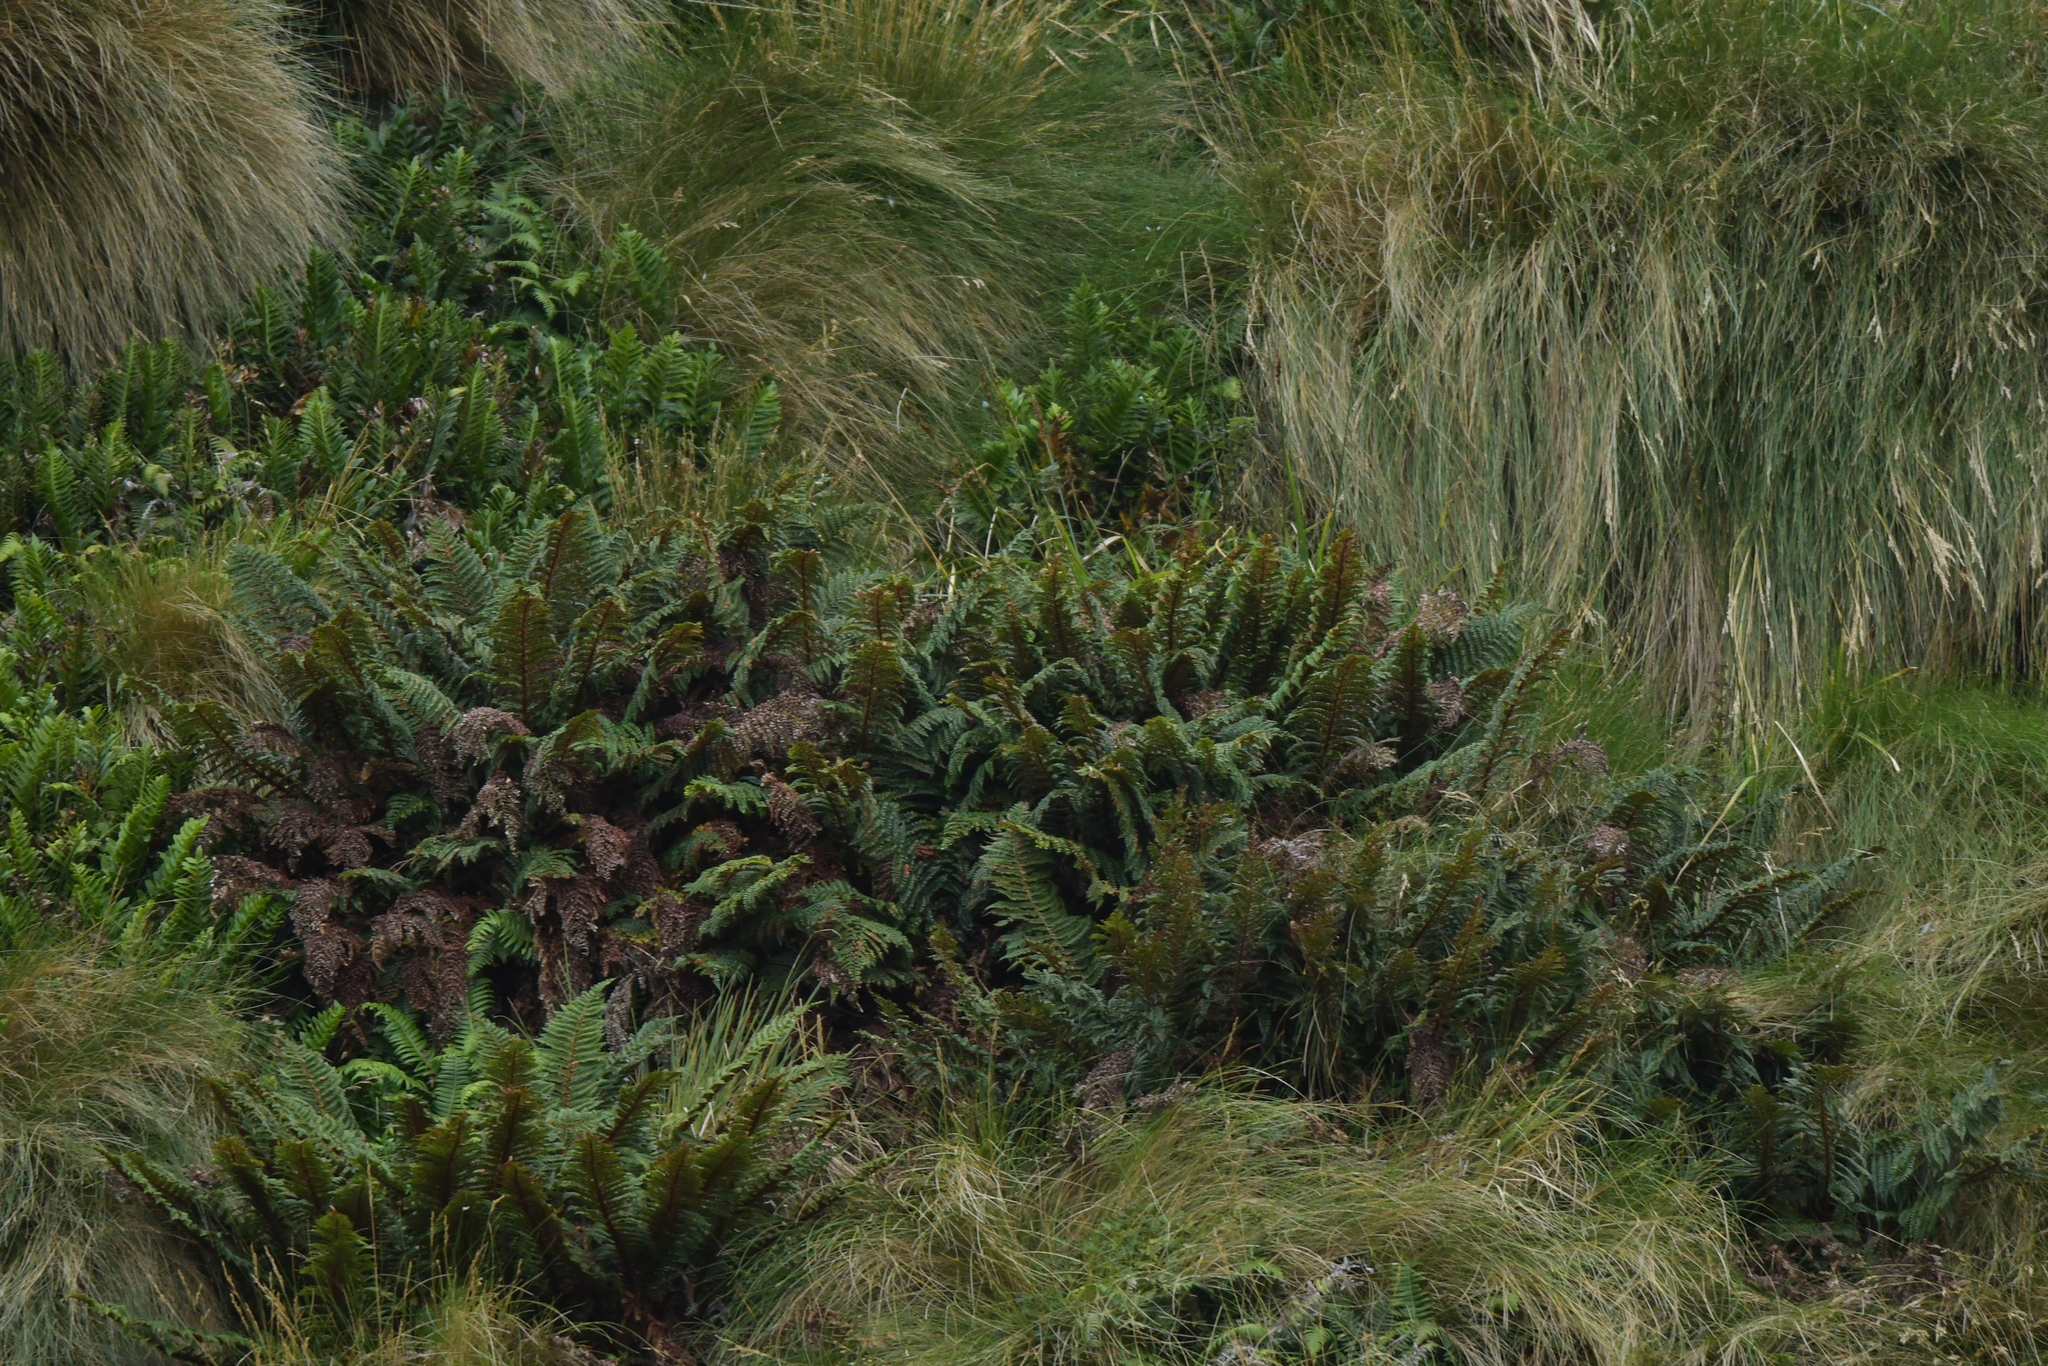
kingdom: Plantae
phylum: Tracheophyta
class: Polypodiopsida
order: Polypodiales
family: Dryopteridaceae
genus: Polystichum
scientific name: Polystichum vestitum
